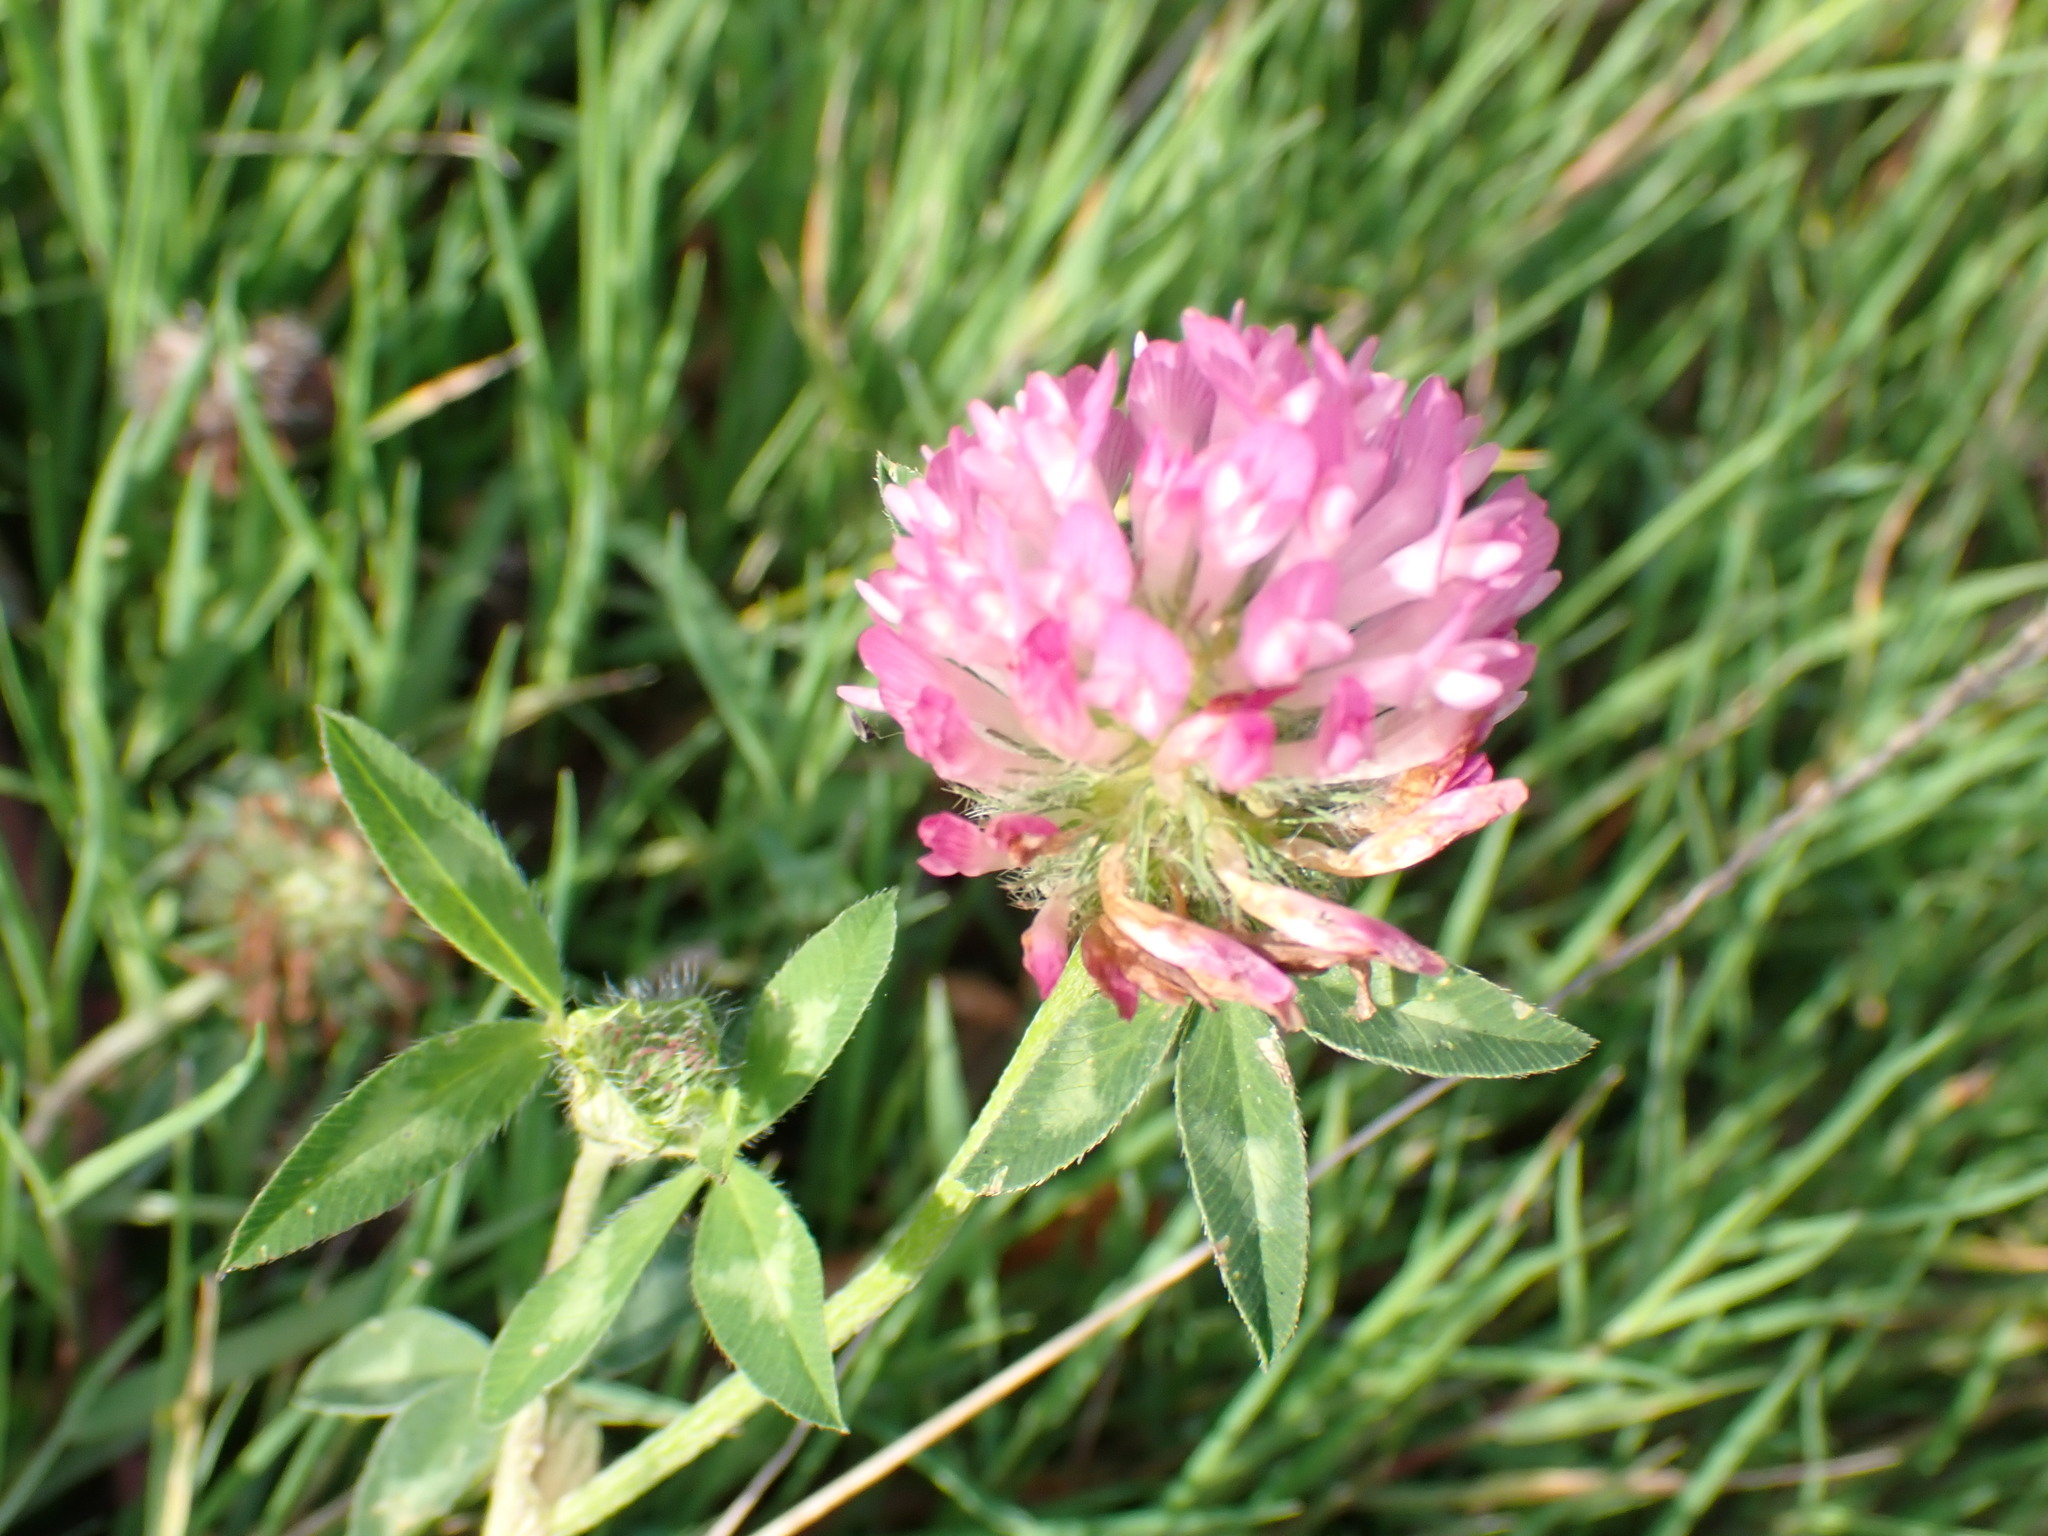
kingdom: Plantae
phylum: Tracheophyta
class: Magnoliopsida
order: Fabales
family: Fabaceae
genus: Trifolium
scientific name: Trifolium pratense
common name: Red clover
